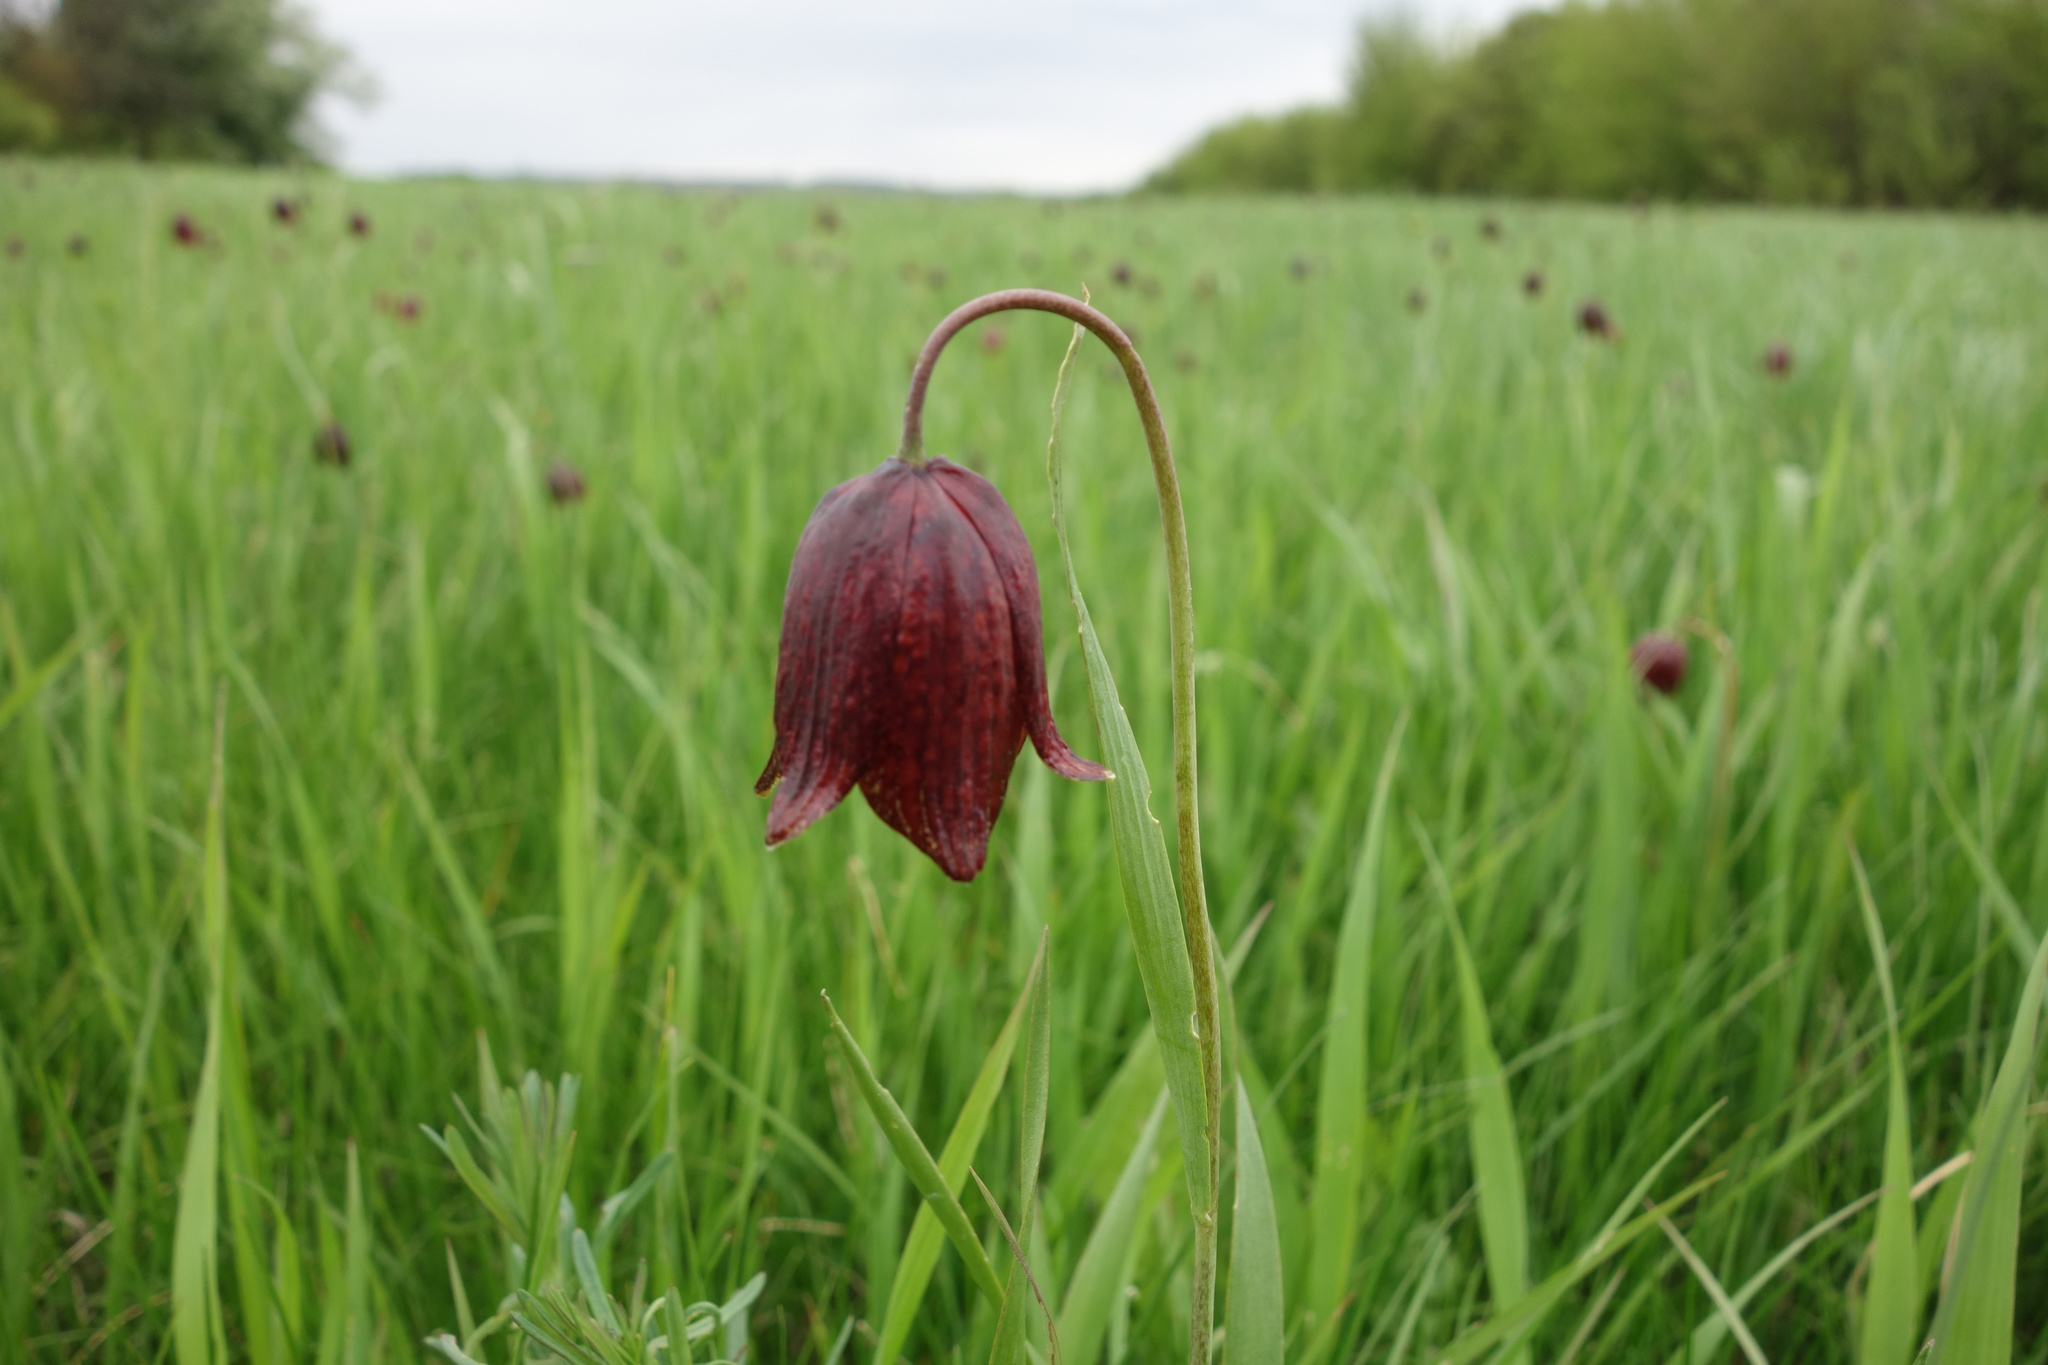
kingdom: Plantae
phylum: Tracheophyta
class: Liliopsida
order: Liliales
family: Liliaceae
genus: Fritillaria
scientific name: Fritillaria meleagroides
